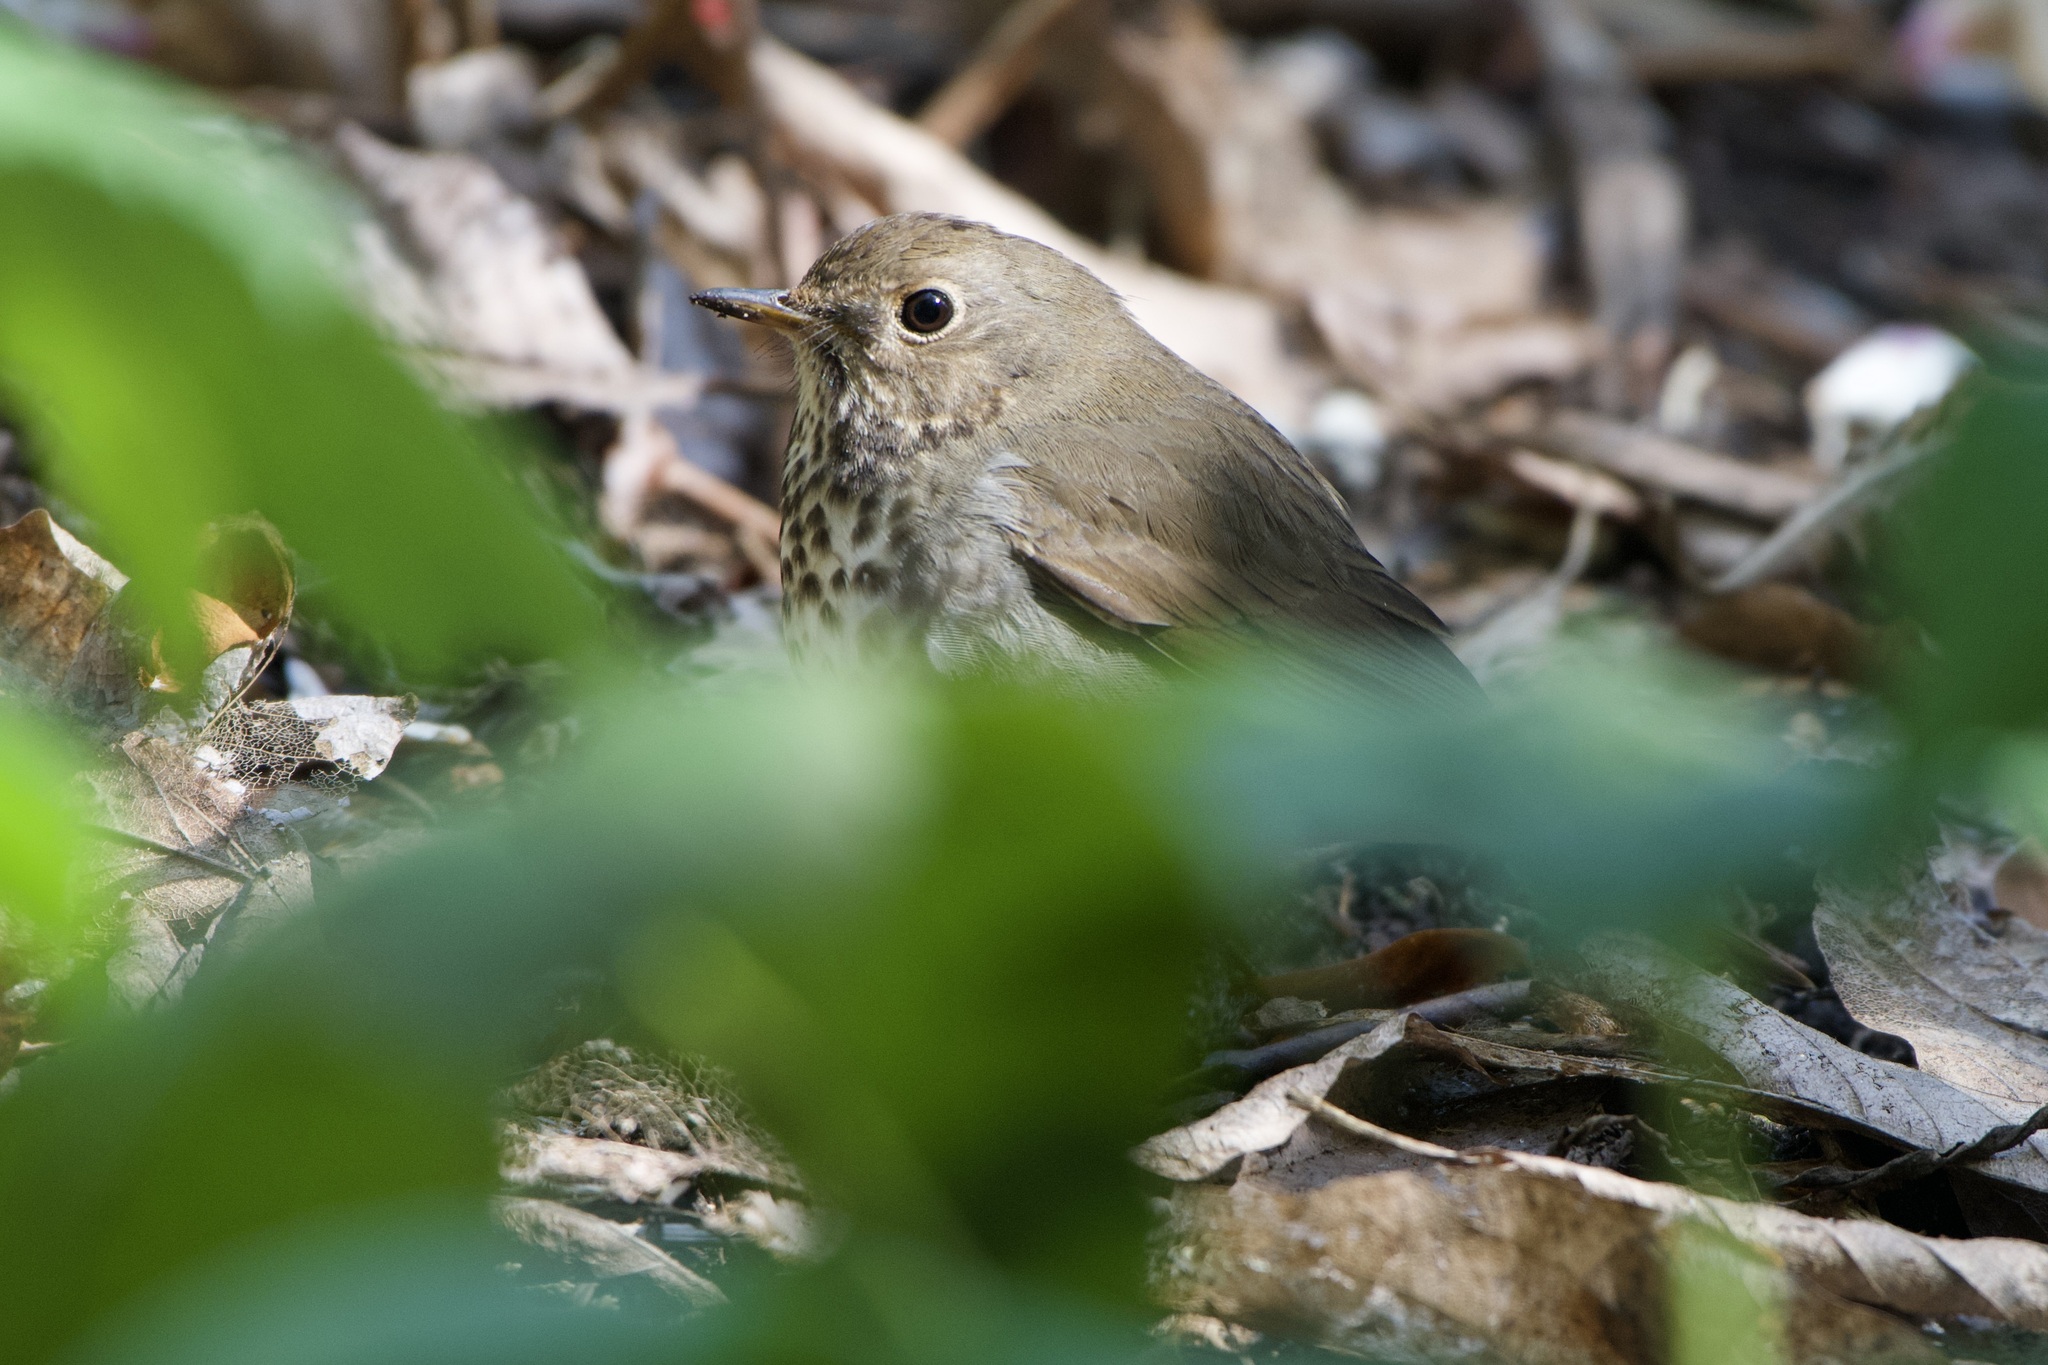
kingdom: Animalia
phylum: Chordata
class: Aves
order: Passeriformes
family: Turdidae
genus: Catharus
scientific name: Catharus guttatus
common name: Hermit thrush
